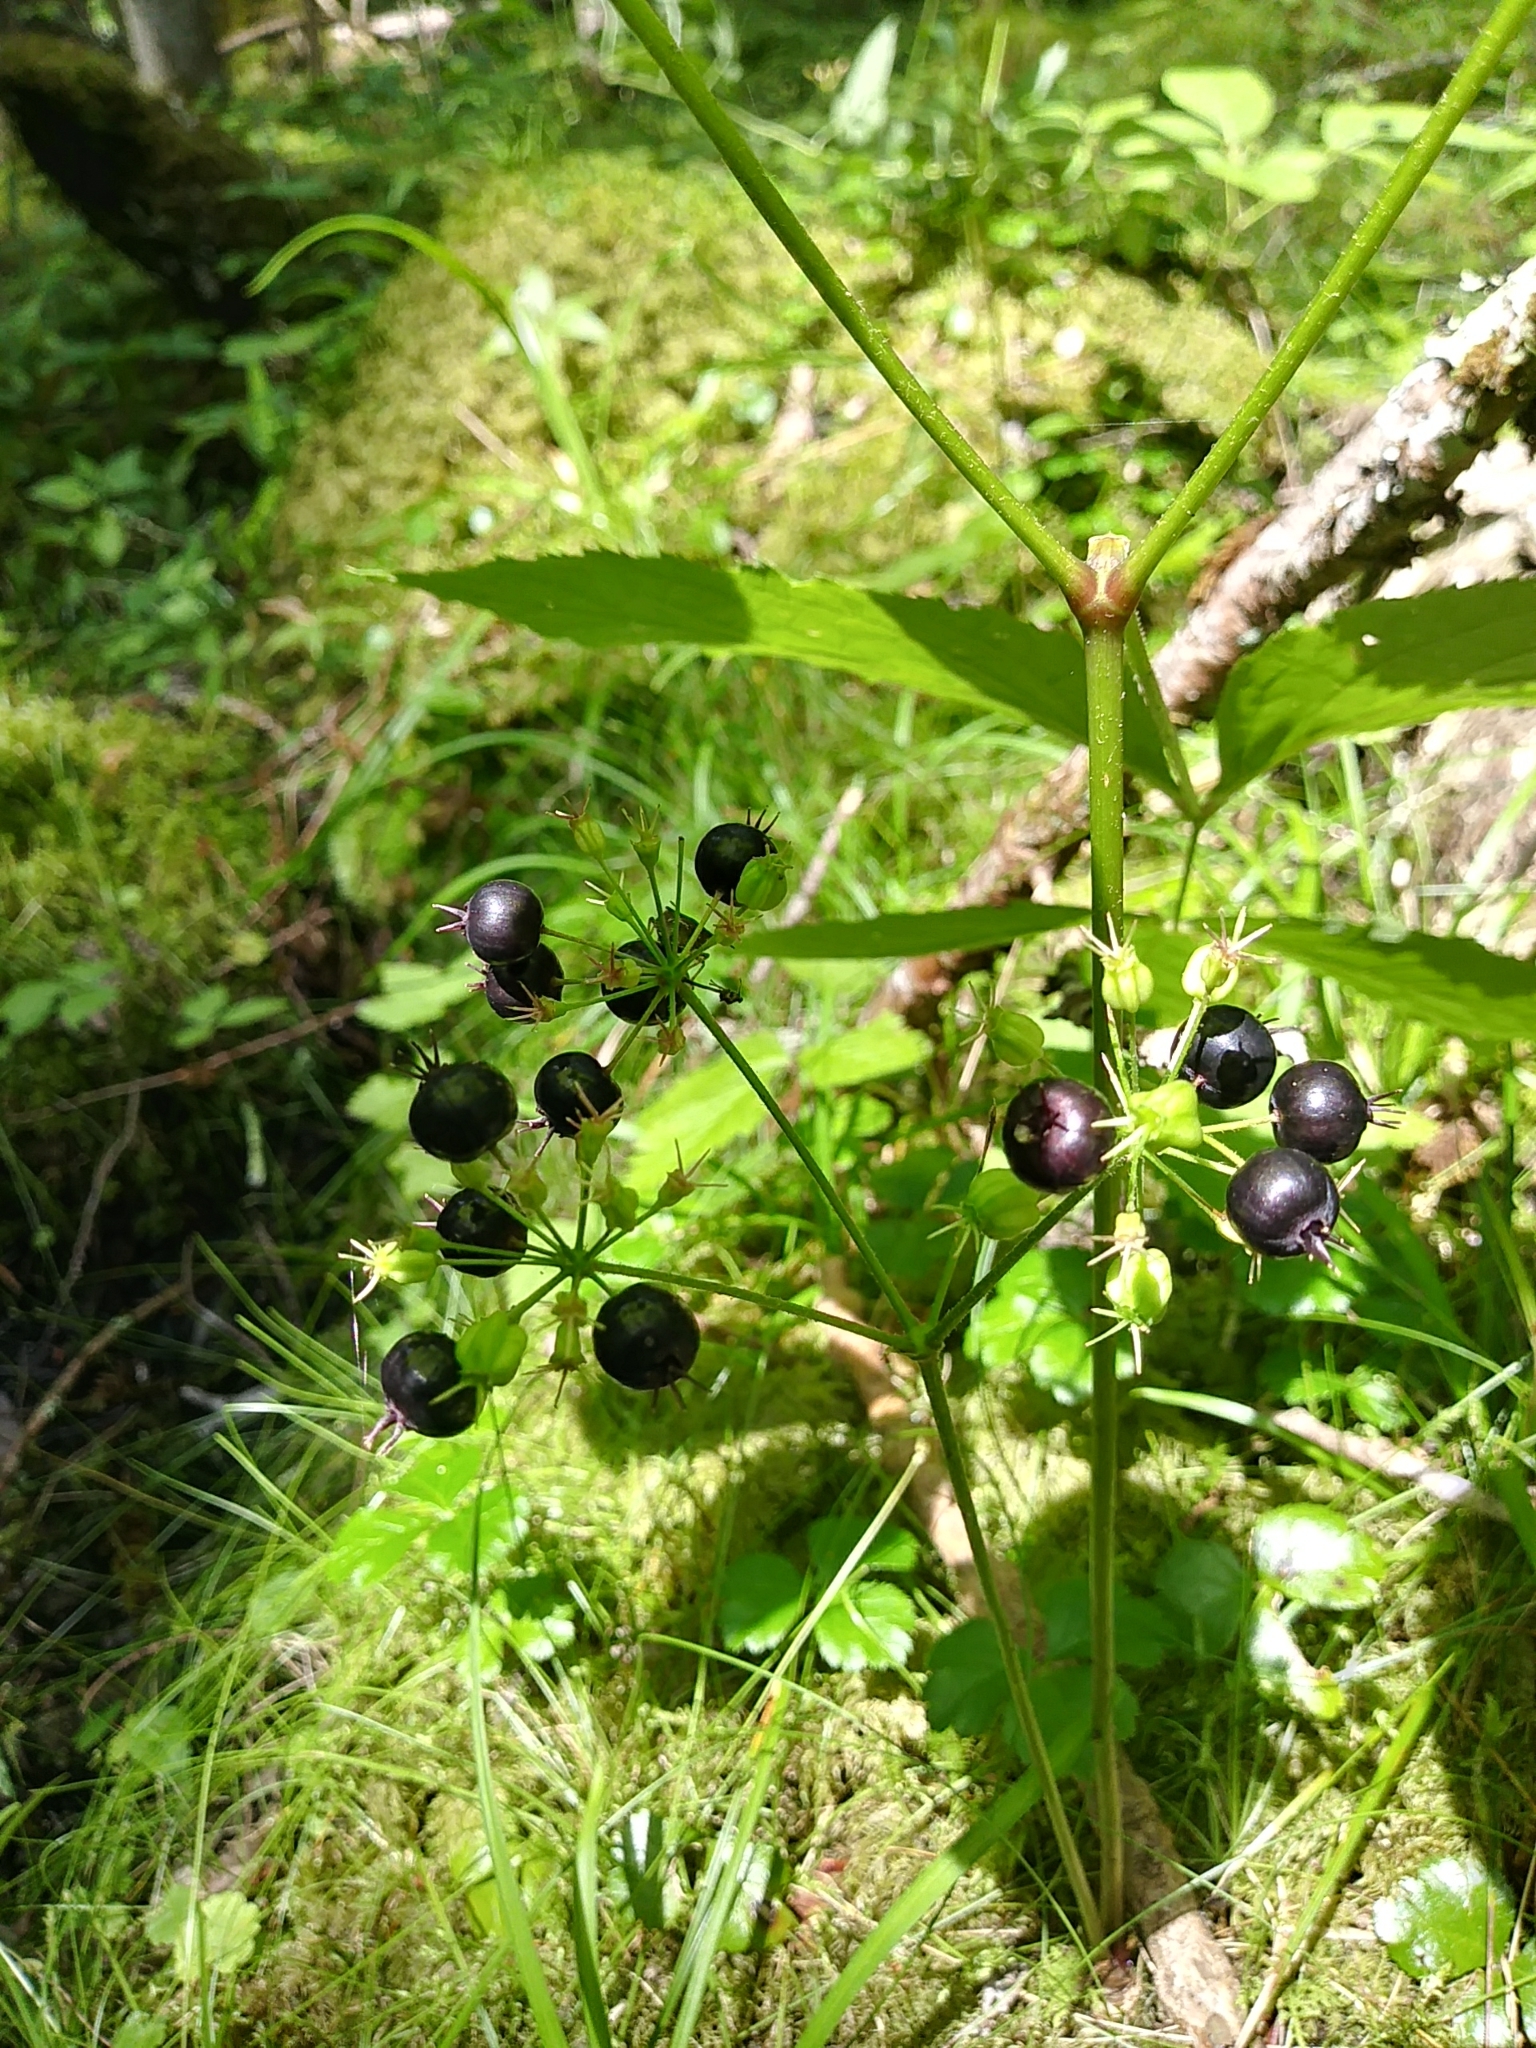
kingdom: Plantae
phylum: Tracheophyta
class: Magnoliopsida
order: Apiales
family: Araliaceae
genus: Aralia
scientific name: Aralia nudicaulis
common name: Wild sarsaparilla
